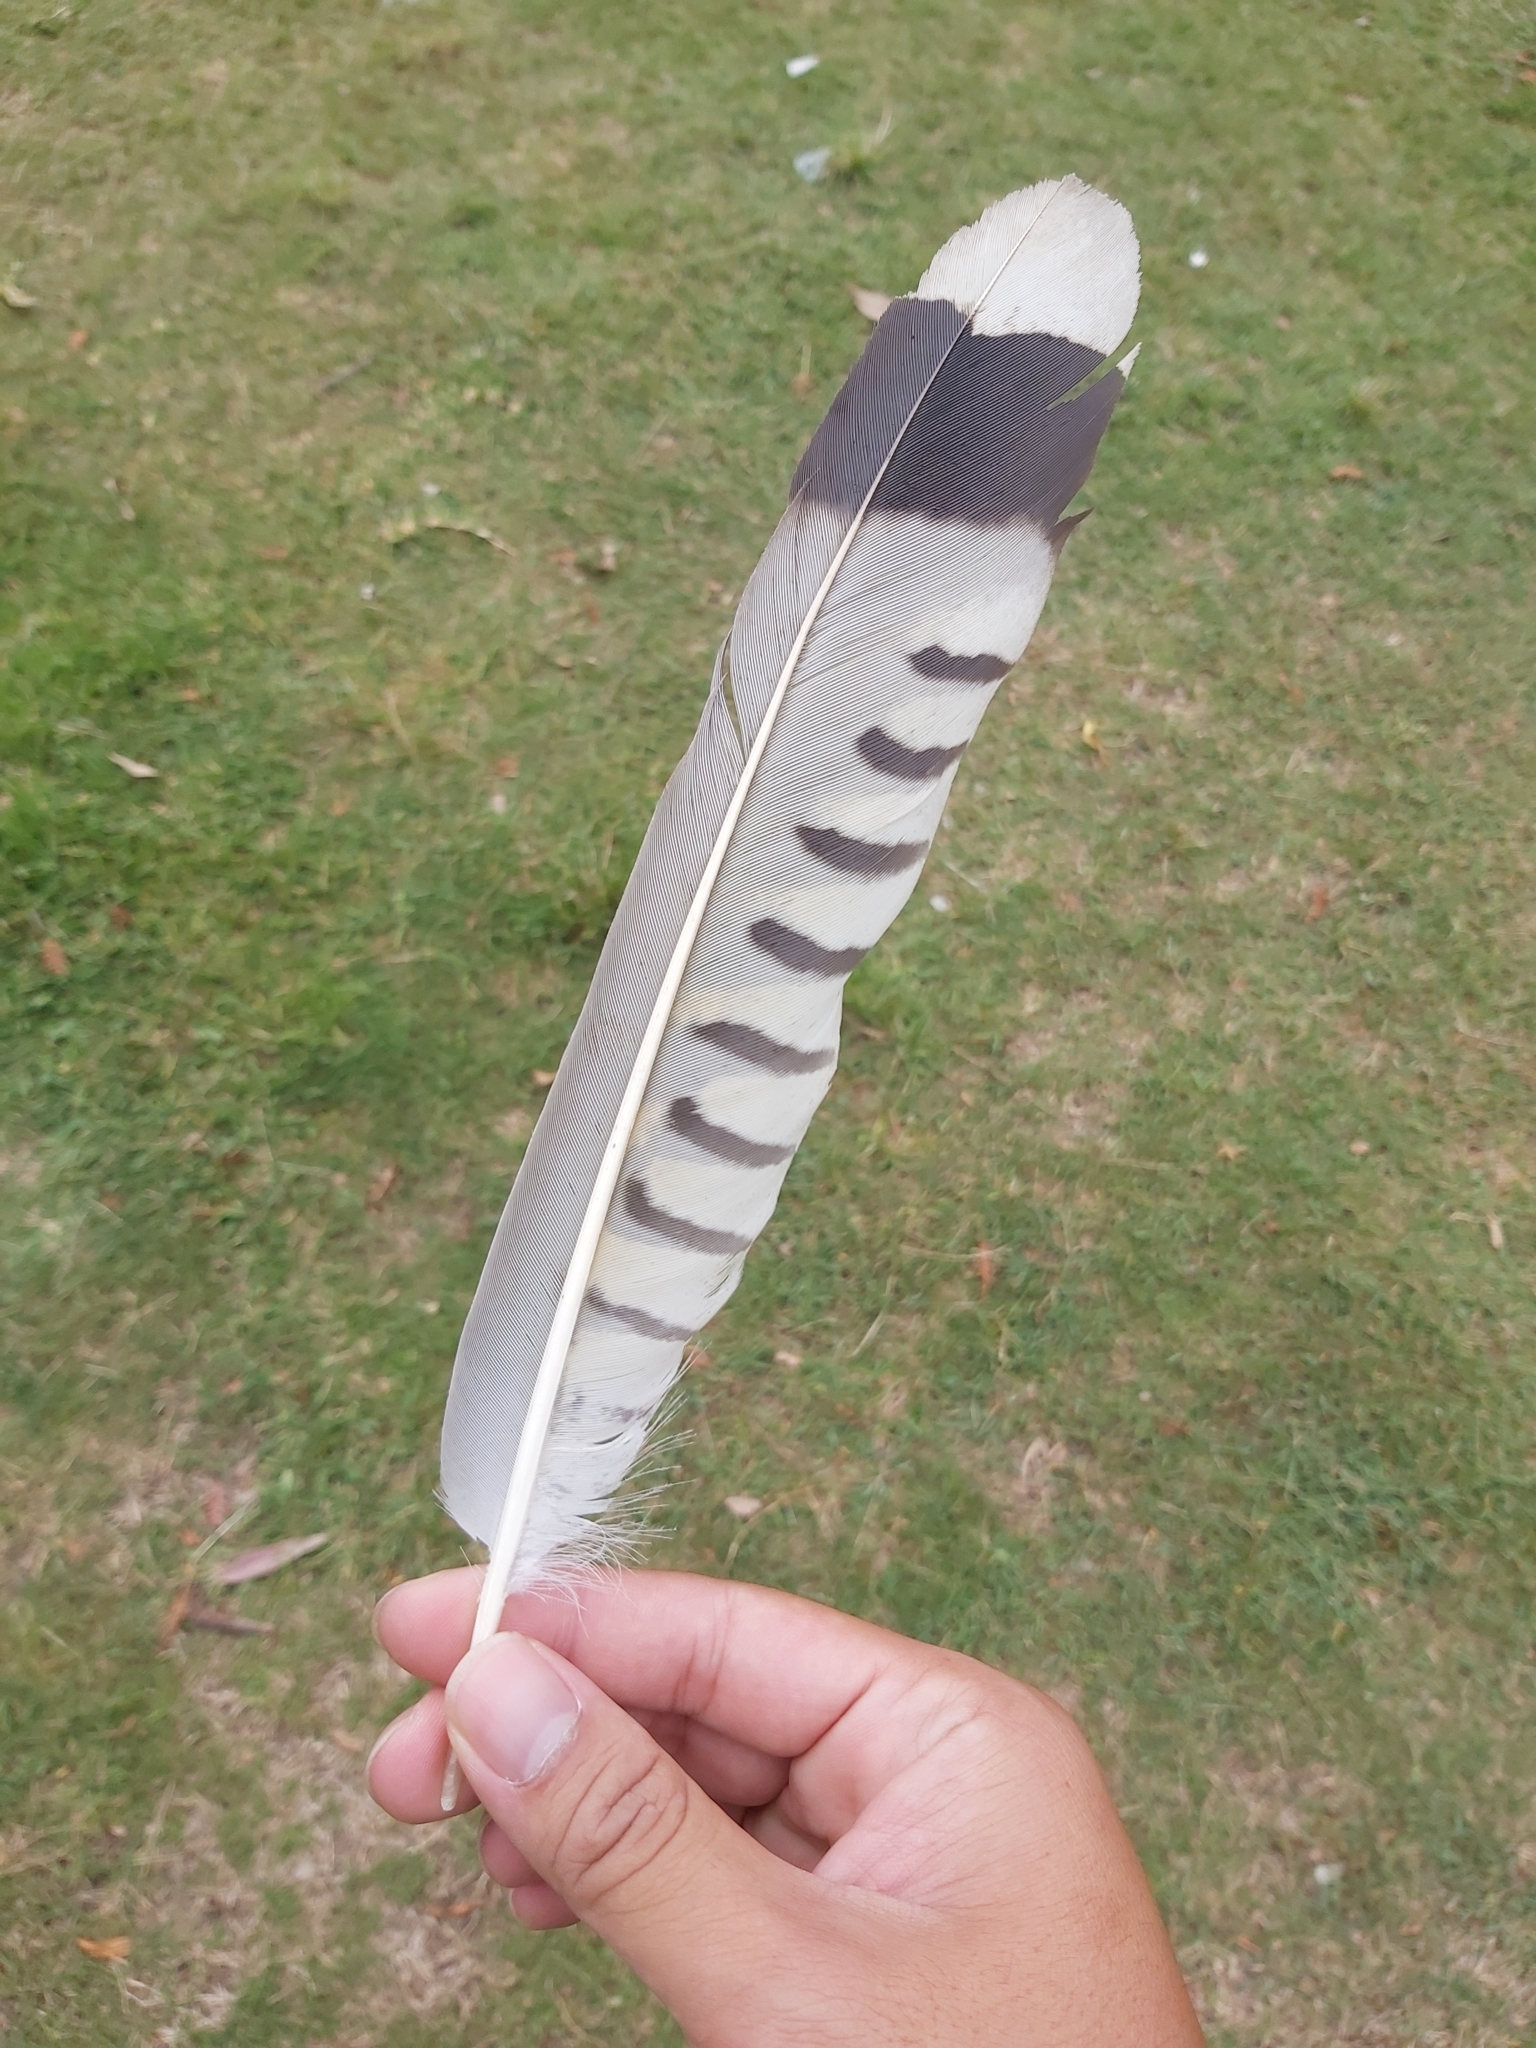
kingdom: Animalia
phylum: Chordata
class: Aves
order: Cuculiformes
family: Cuculidae
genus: Scythrops
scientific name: Scythrops novaehollandiae
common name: Channel-billed cuckoo
